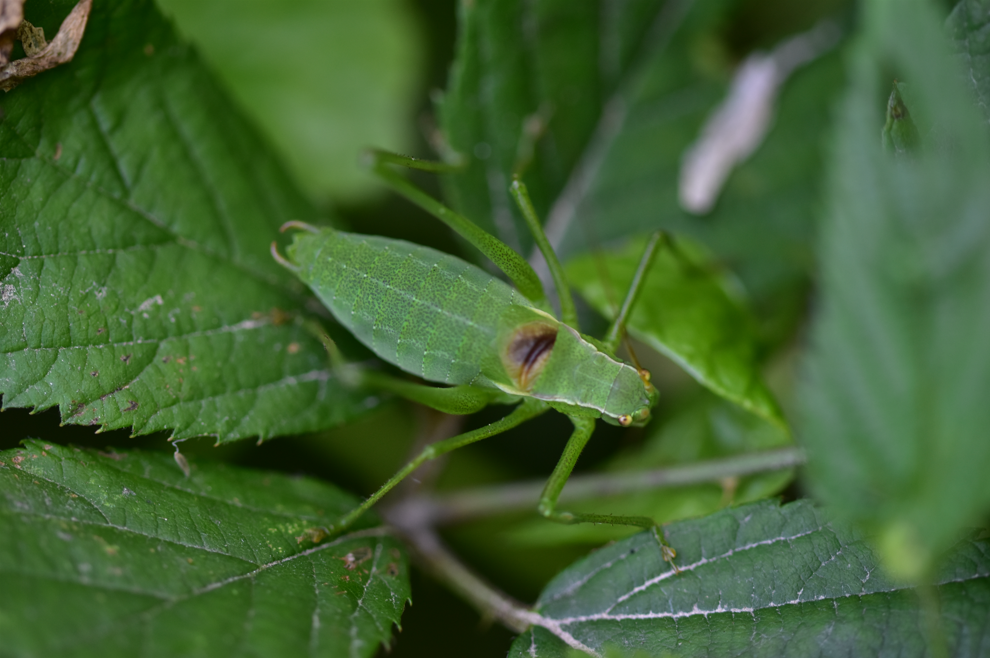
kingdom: Animalia
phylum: Arthropoda
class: Insecta
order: Orthoptera
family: Tettigoniidae
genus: Isophya
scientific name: Isophya kraussii
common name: Krauss's plump bush-cricket
